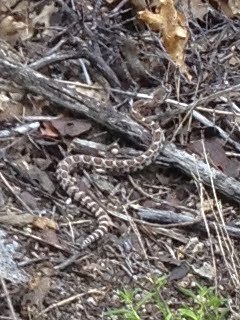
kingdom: Animalia
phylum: Chordata
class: Squamata
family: Viperidae
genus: Crotalus
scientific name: Crotalus oreganus
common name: Abyssus
